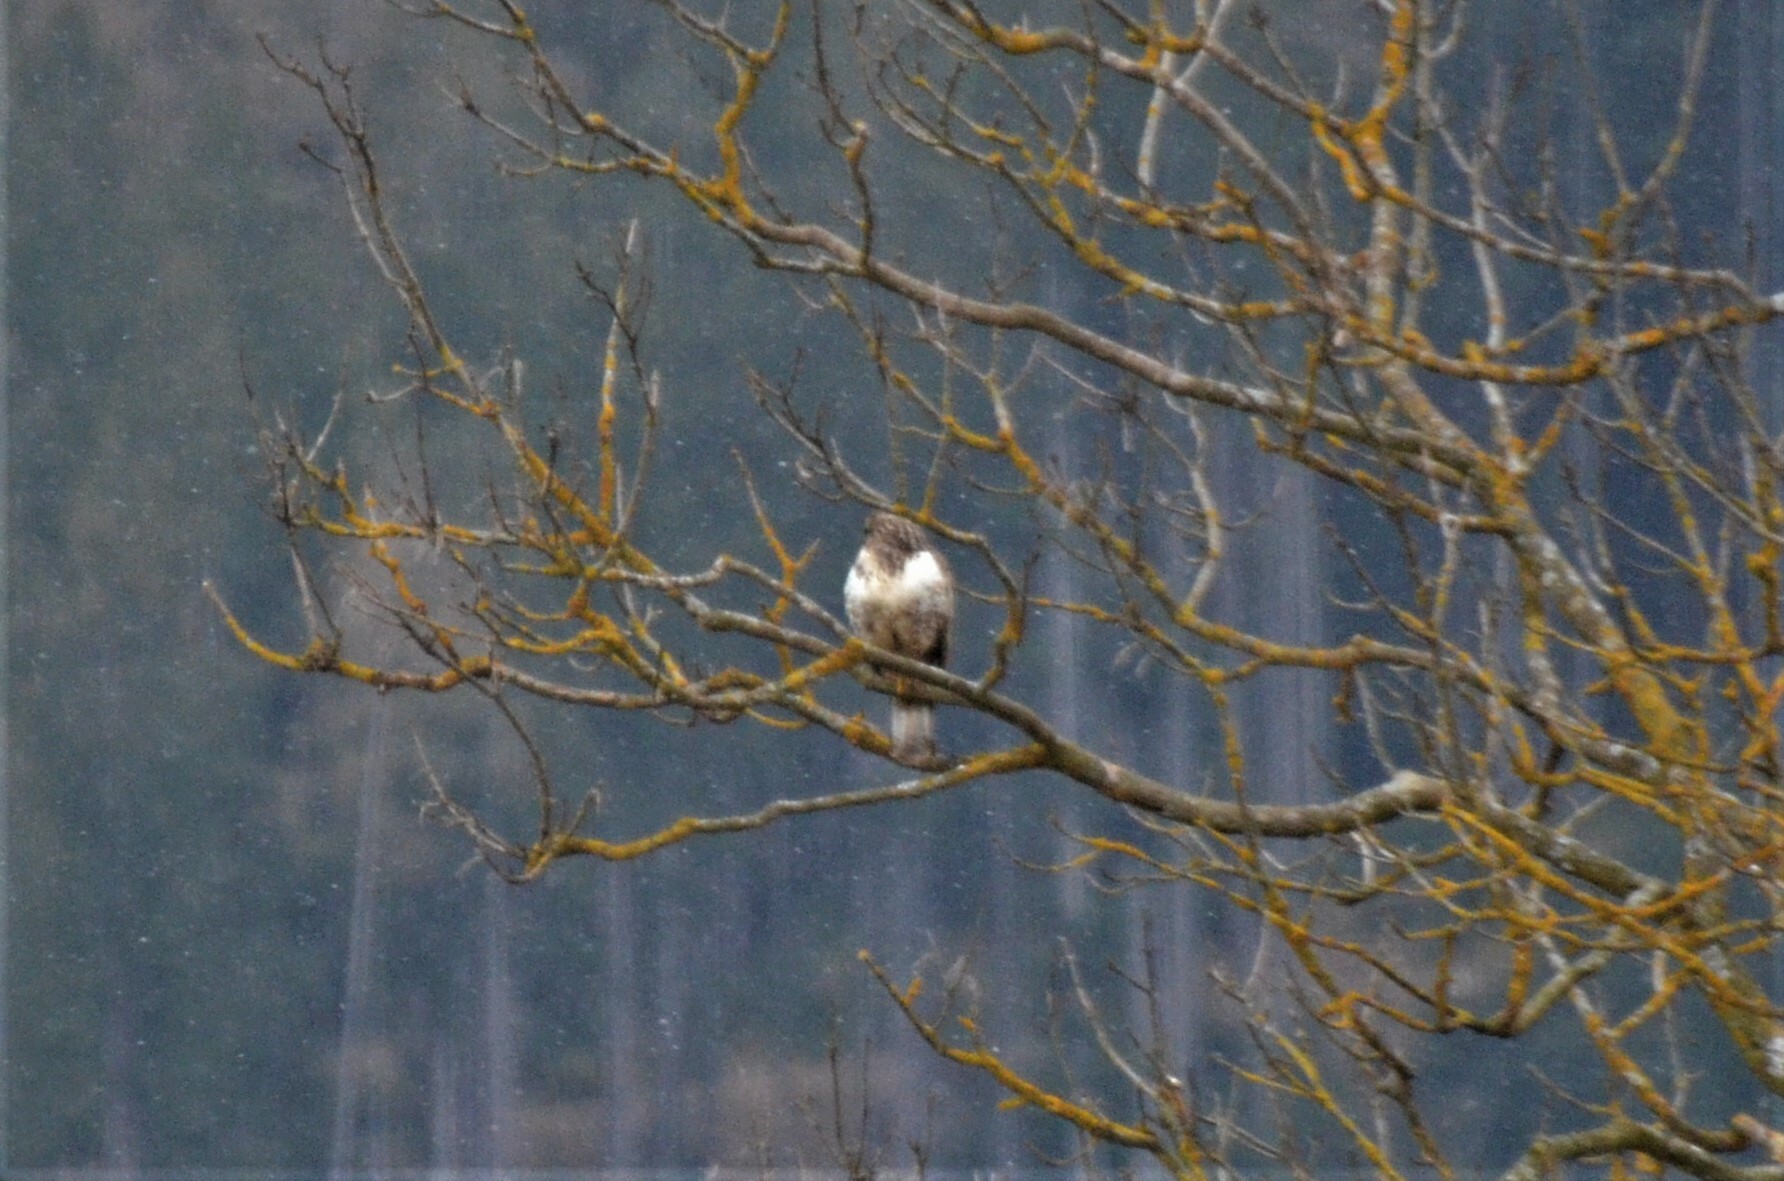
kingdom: Animalia
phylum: Chordata
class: Aves
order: Accipitriformes
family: Accipitridae
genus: Buteo
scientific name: Buteo buteo
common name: Common buzzard
